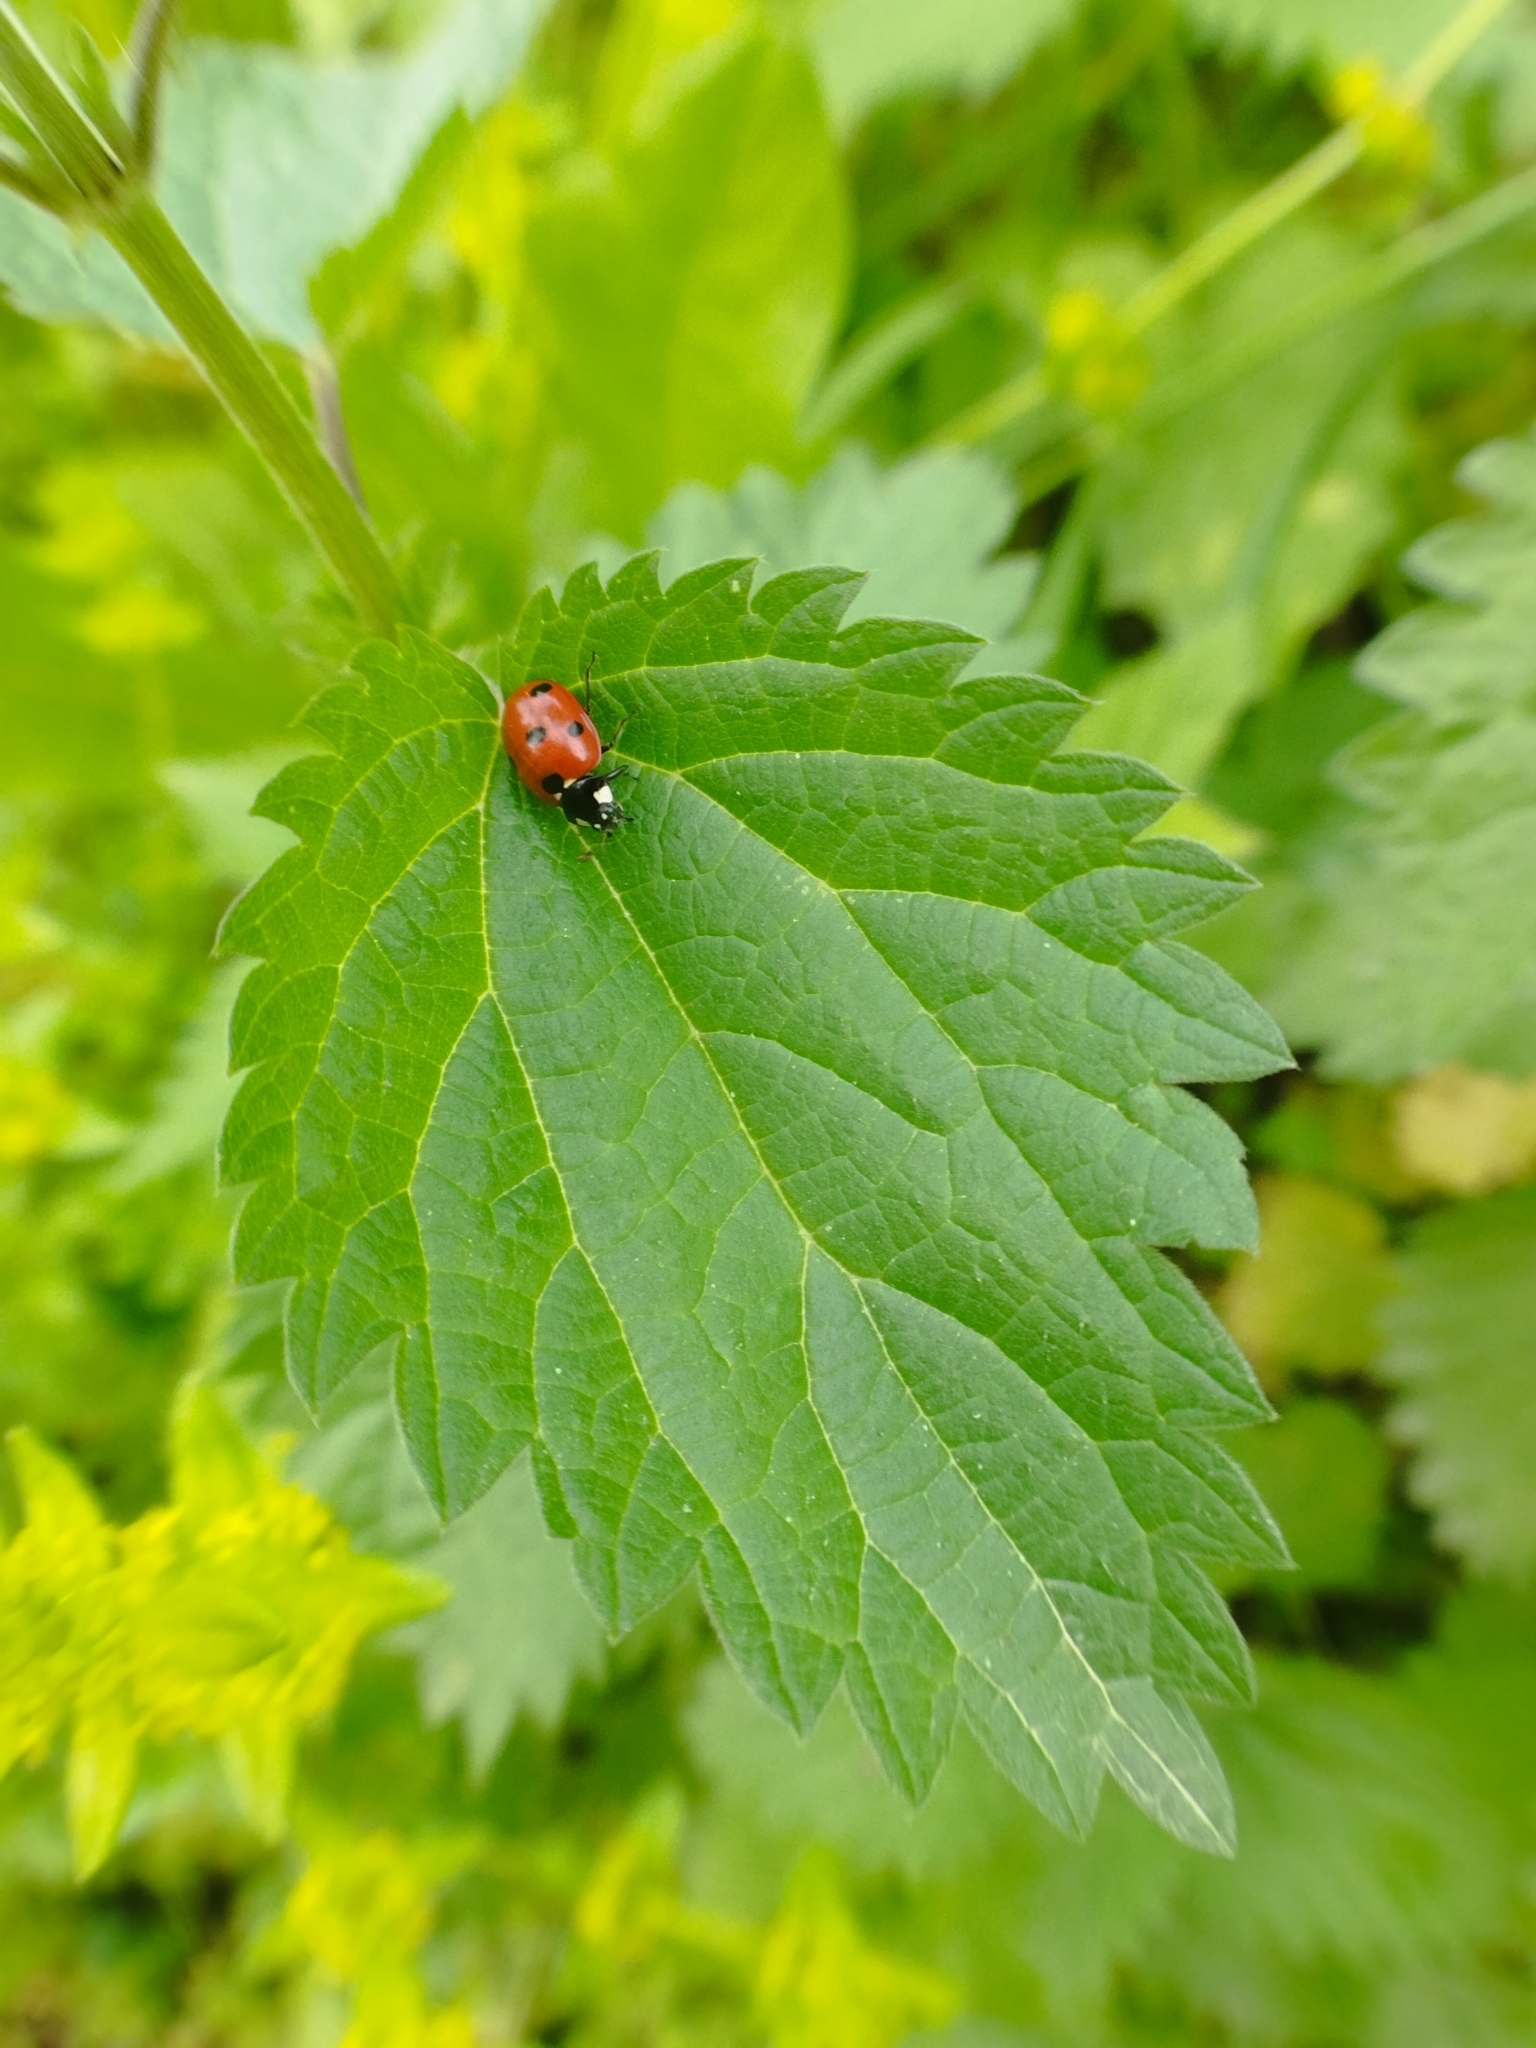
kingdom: Animalia
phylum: Arthropoda
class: Insecta
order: Coleoptera
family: Coccinellidae
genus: Coccinella
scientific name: Coccinella septempunctata
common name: Sevenspotted lady beetle
